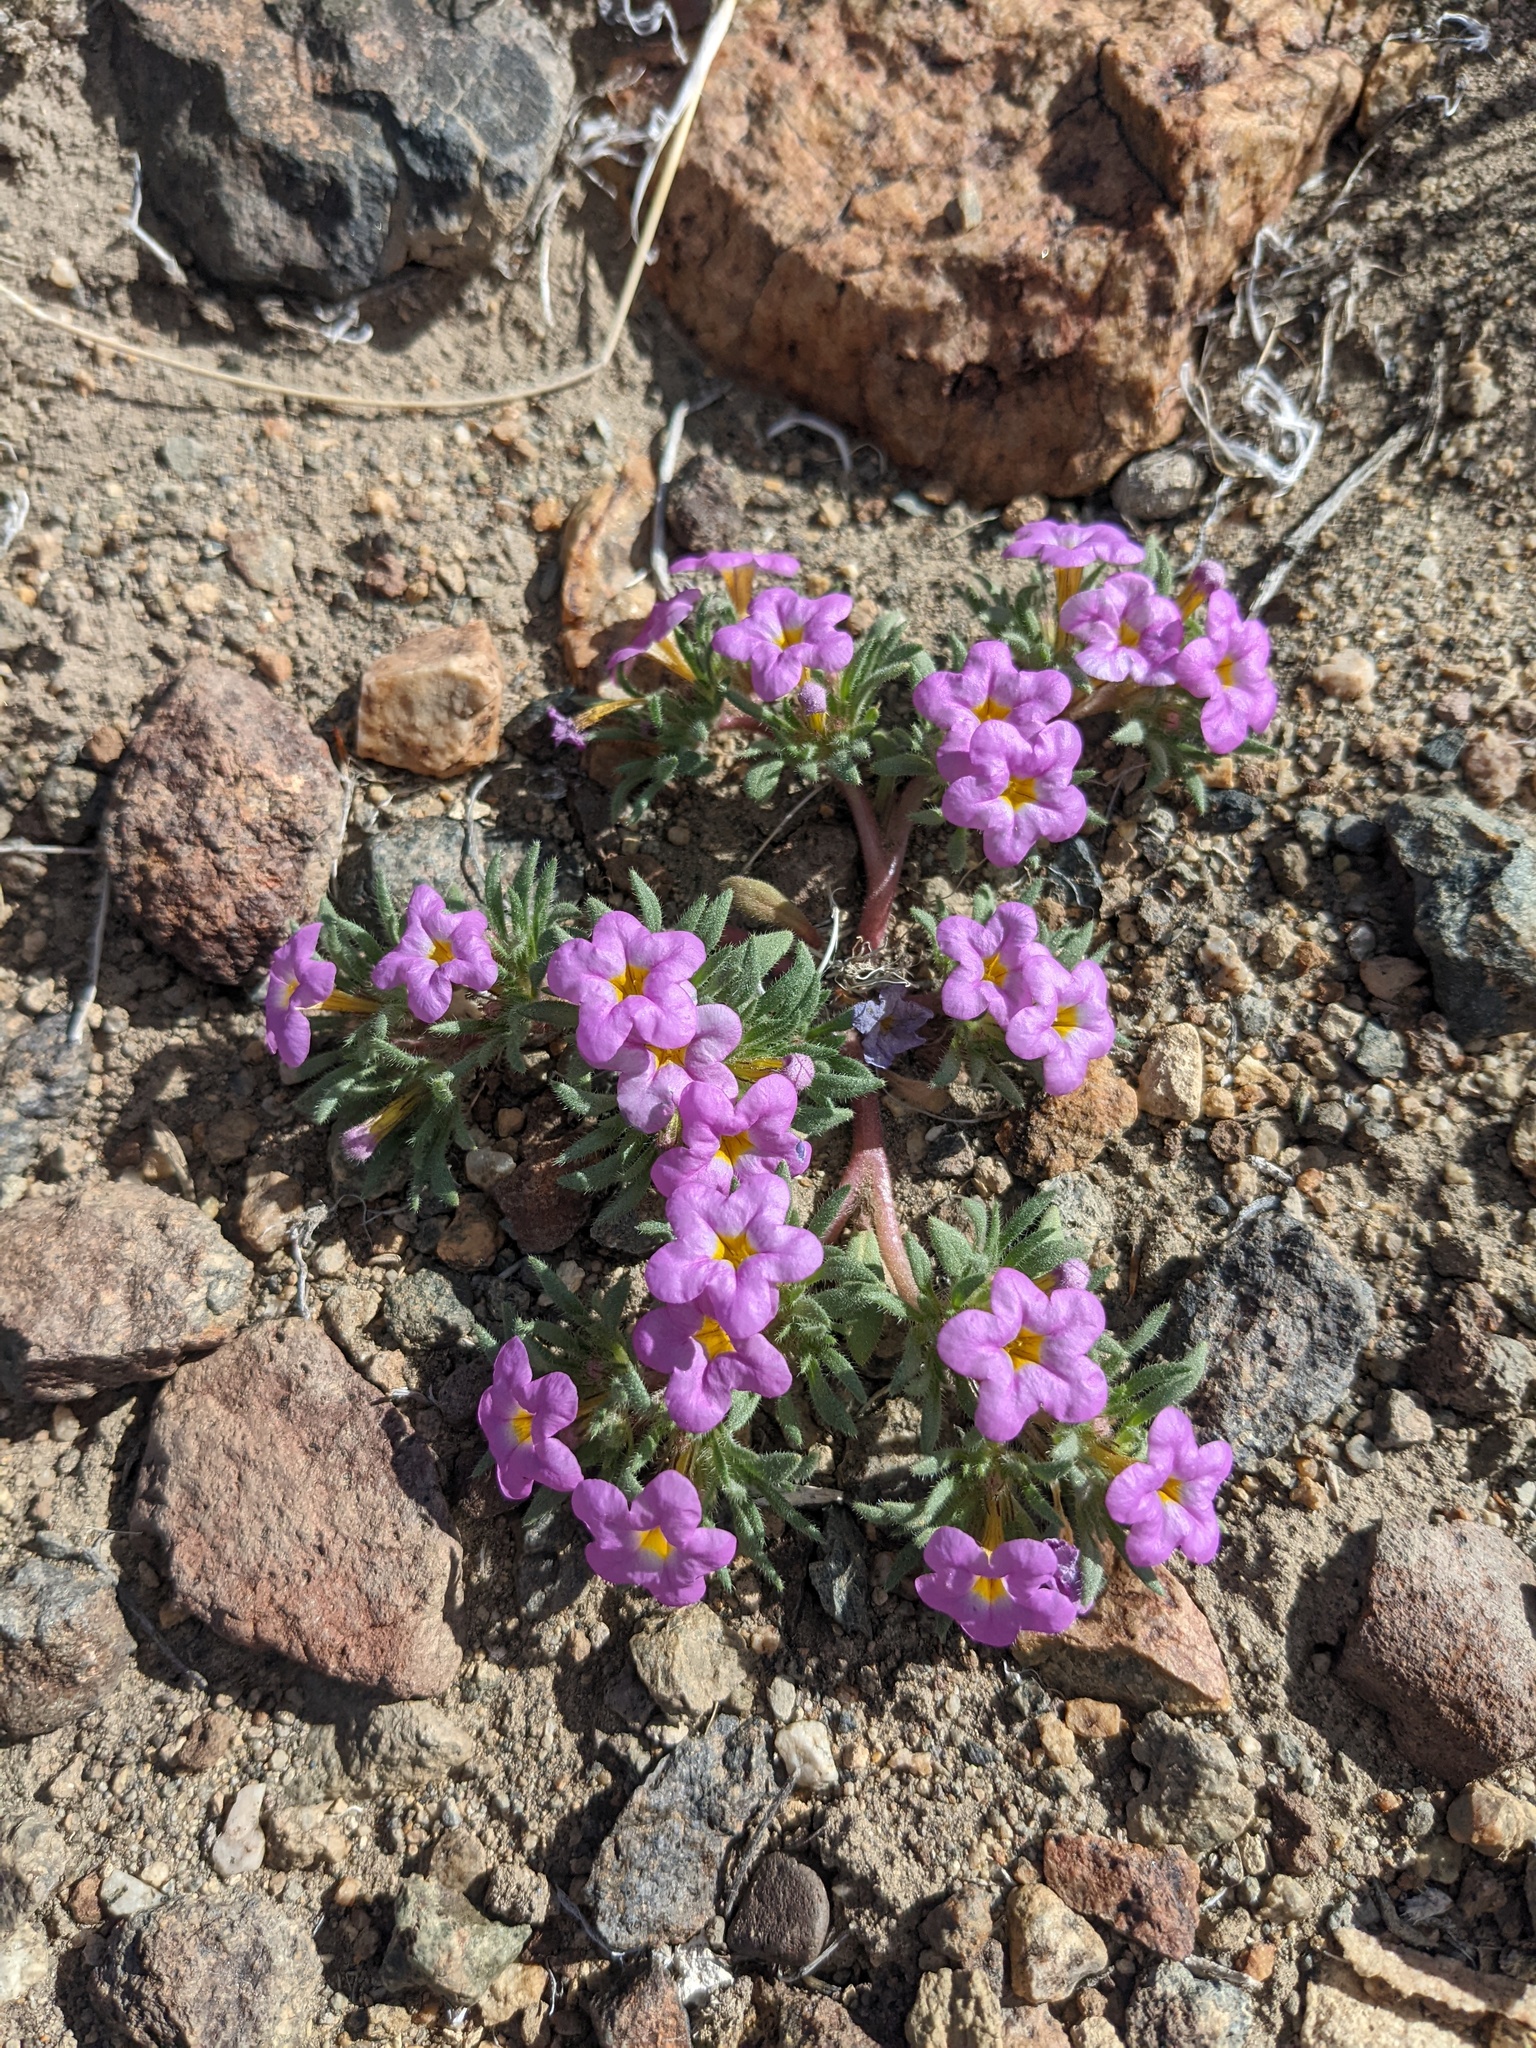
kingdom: Plantae
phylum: Tracheophyta
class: Magnoliopsida
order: Boraginales
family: Namaceae
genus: Nama
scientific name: Nama aretioides
